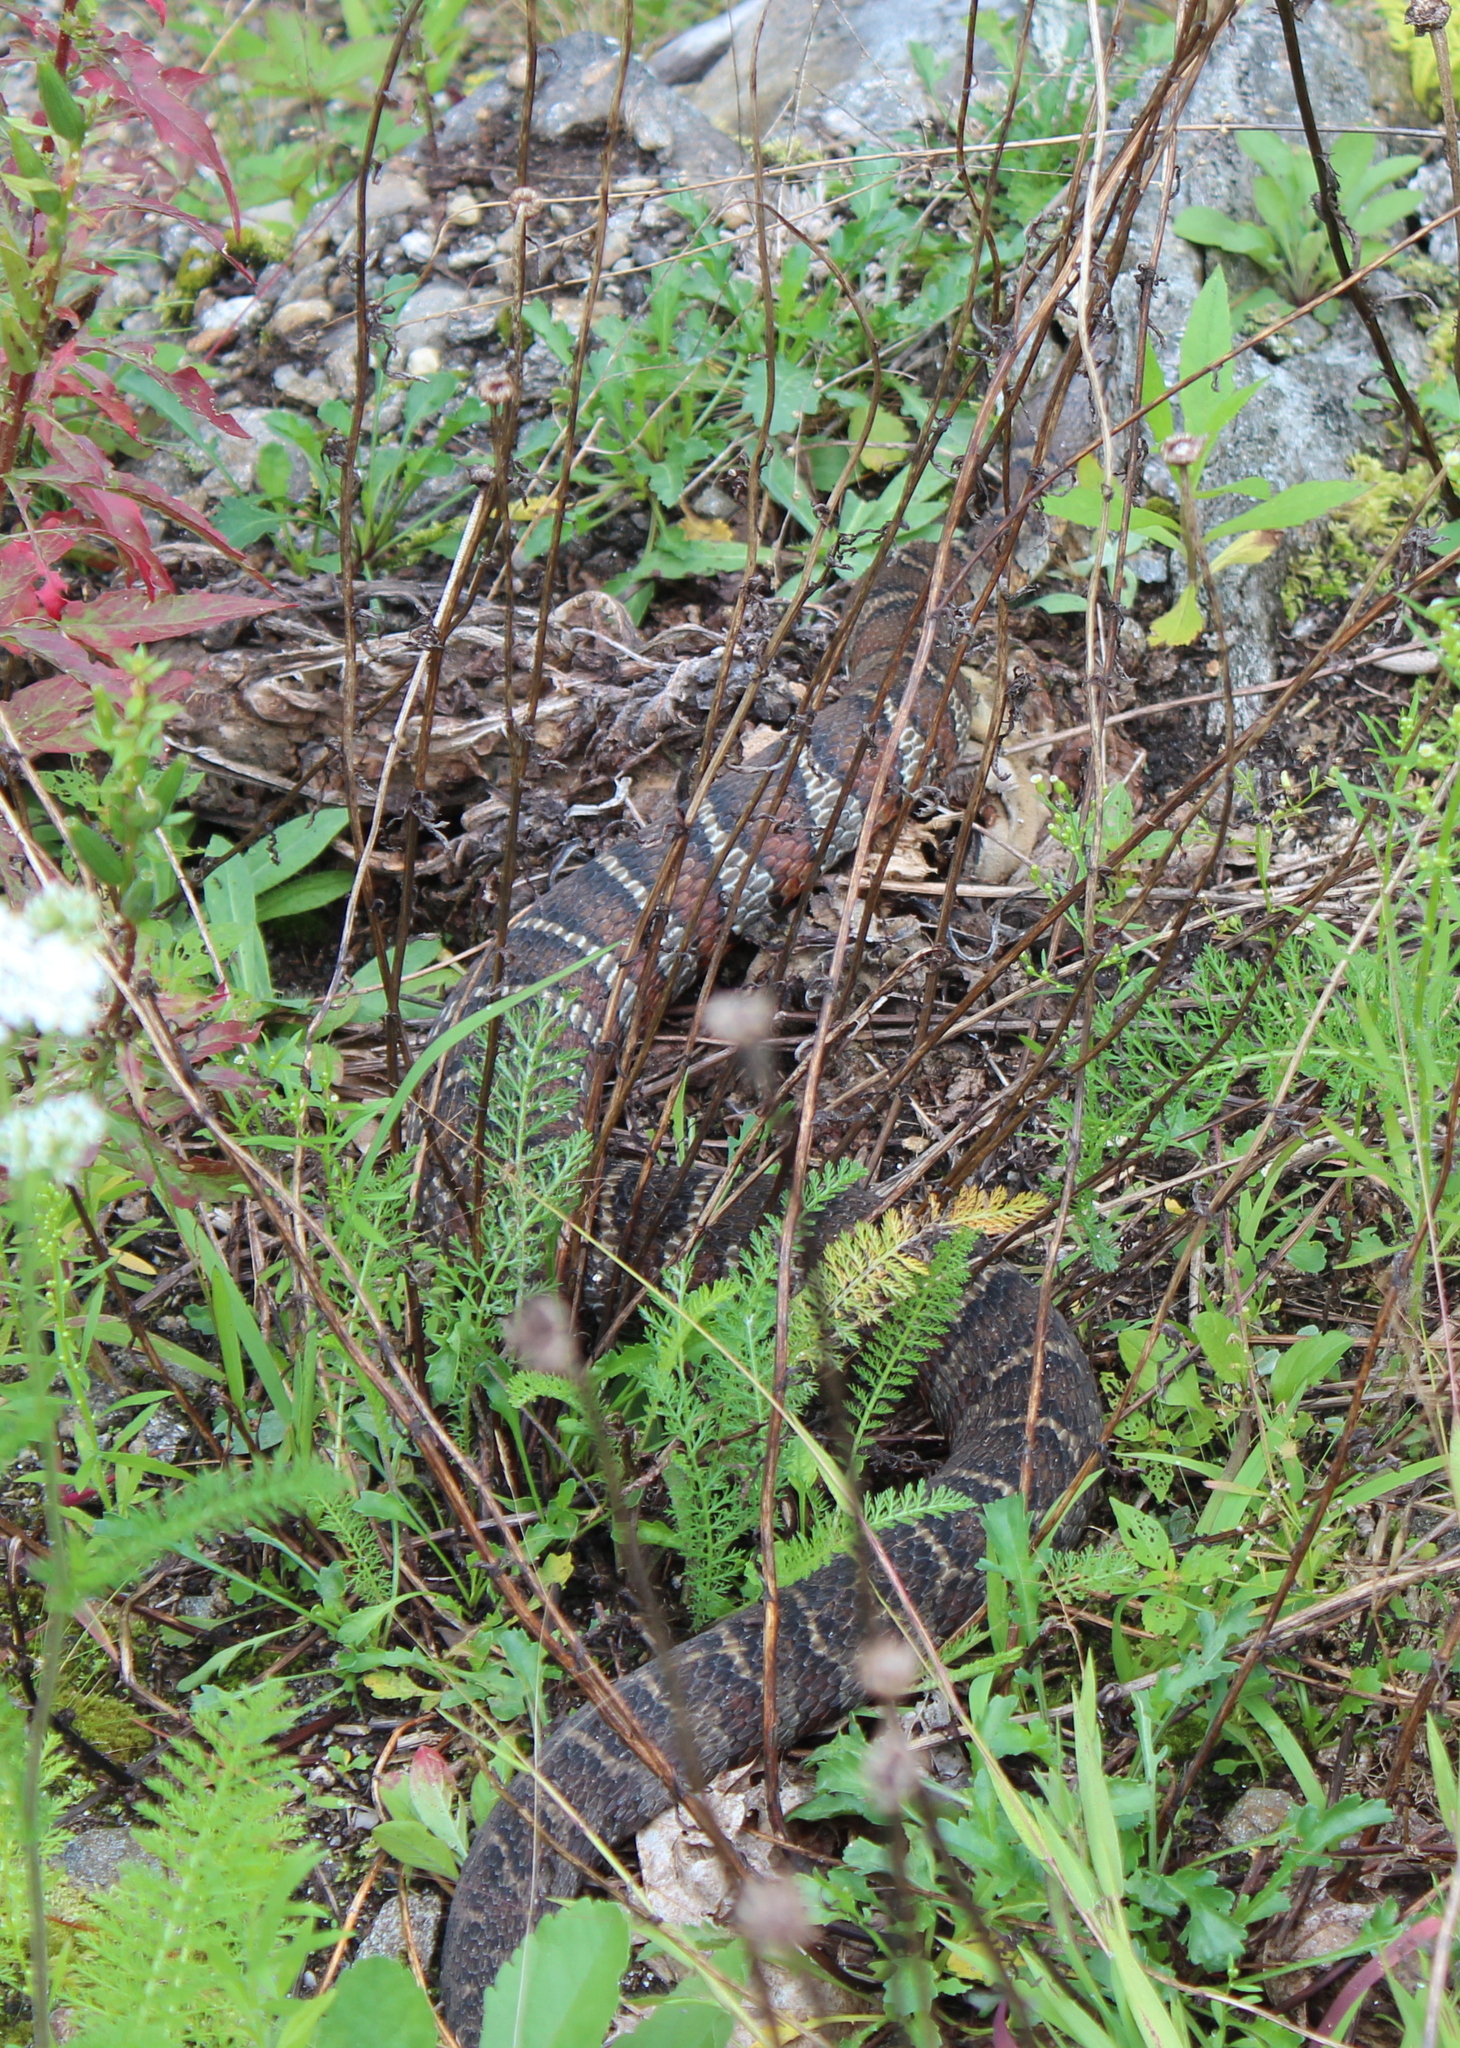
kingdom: Animalia
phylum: Chordata
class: Squamata
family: Colubridae
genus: Nerodia
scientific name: Nerodia sipedon
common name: Northern water snake
